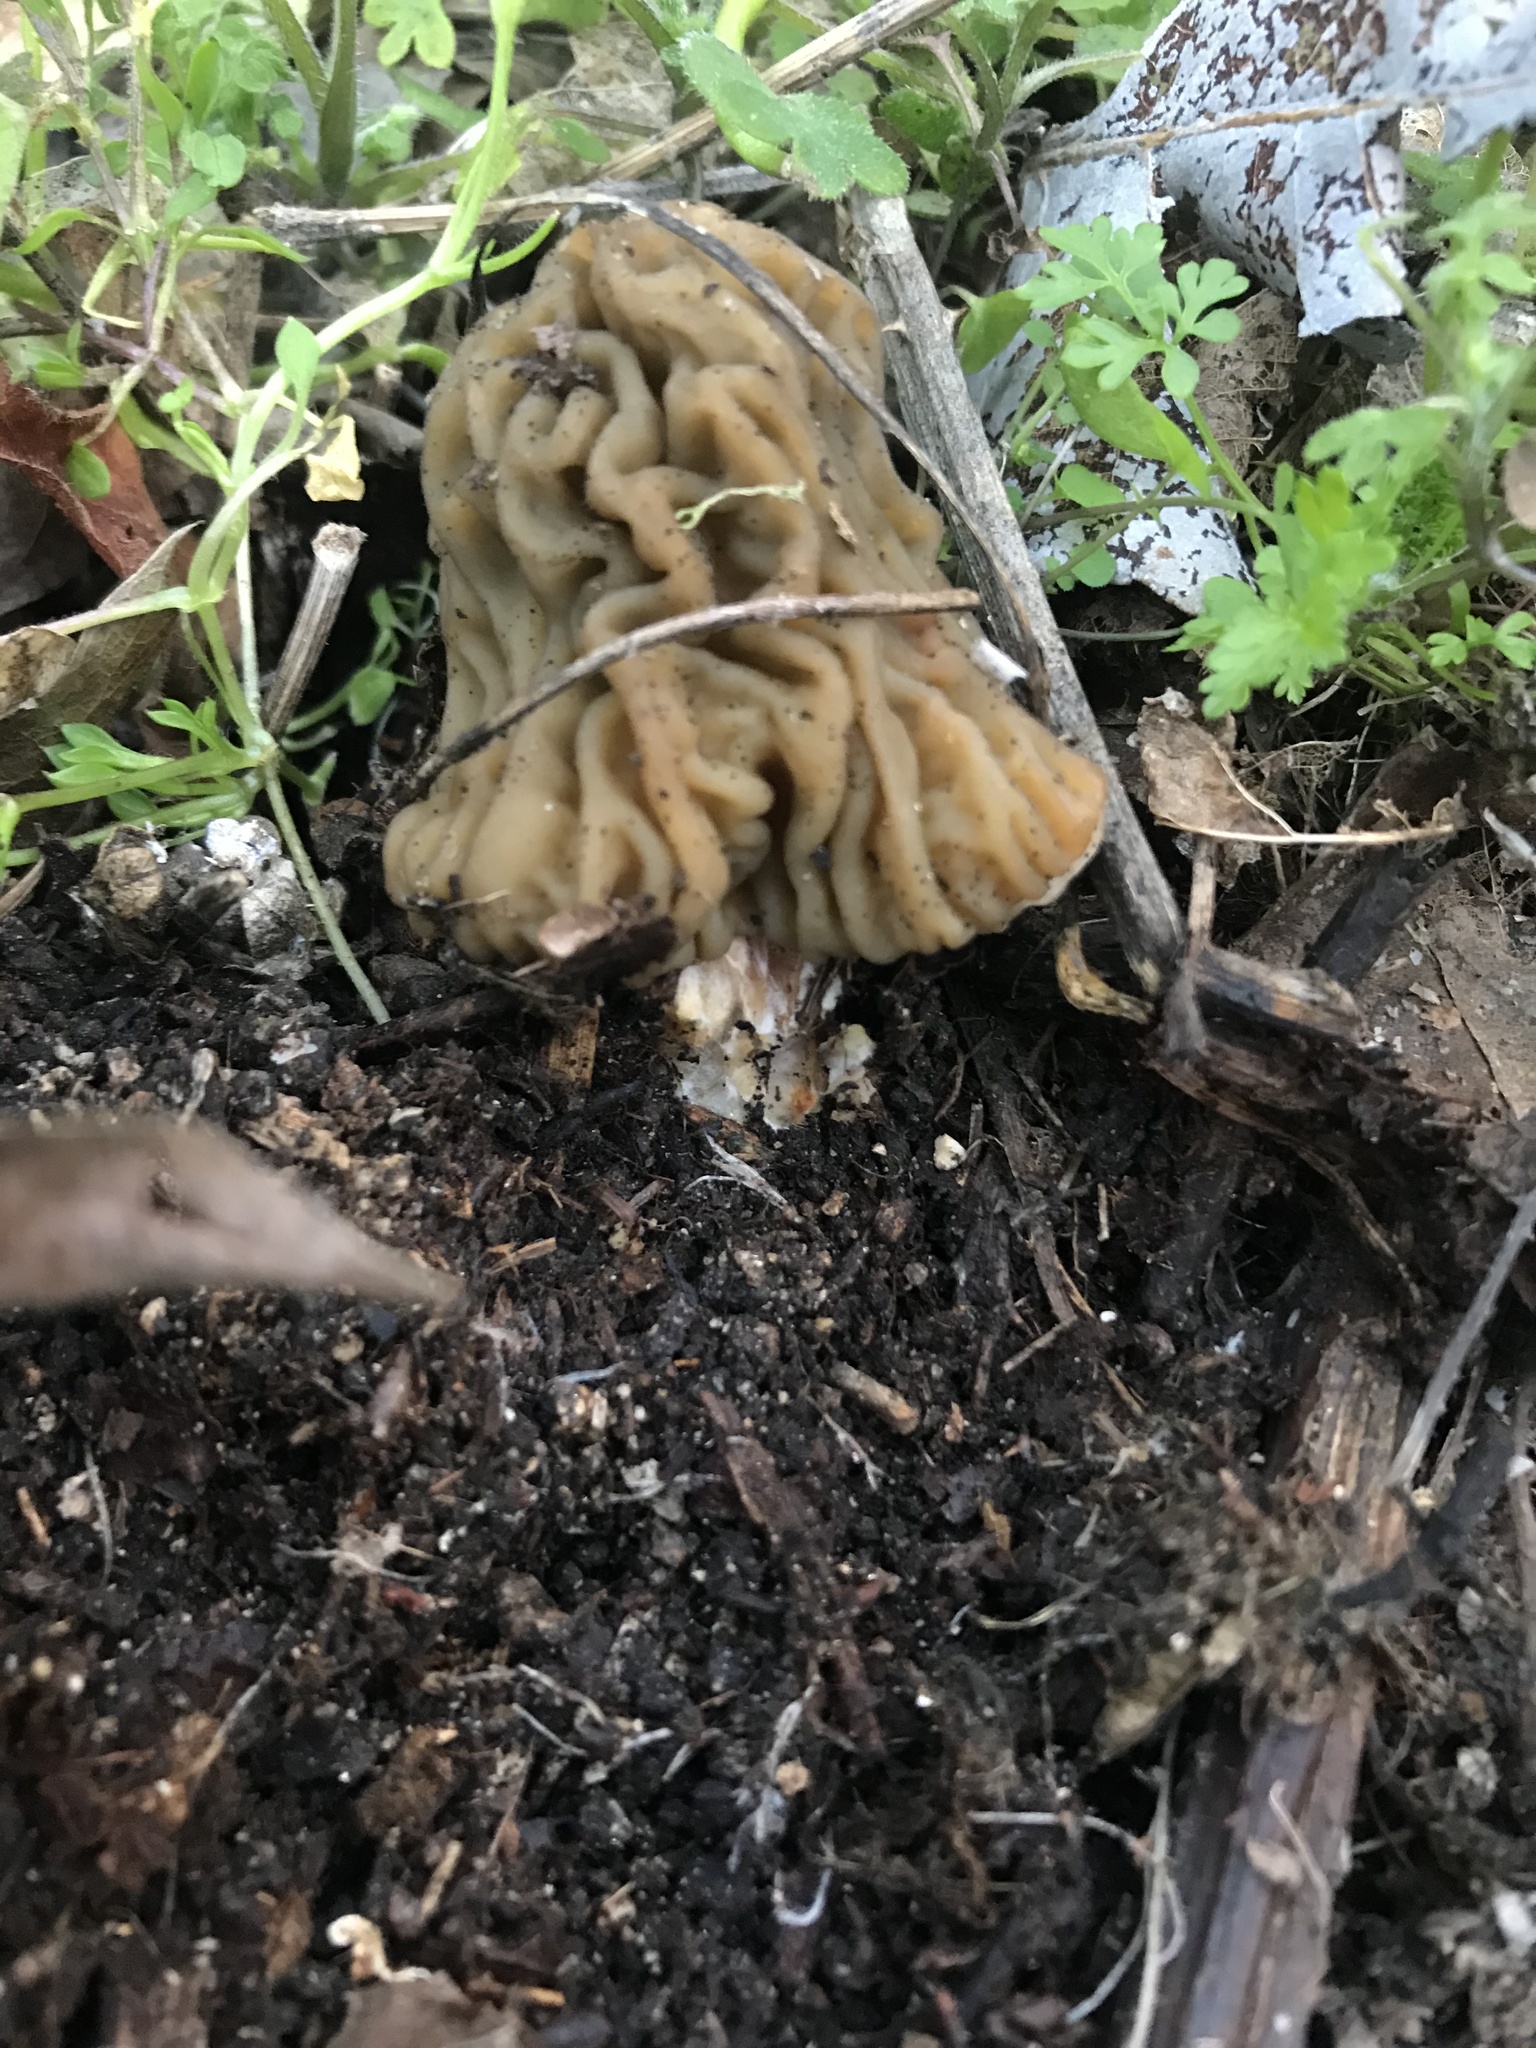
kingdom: Fungi
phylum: Ascomycota
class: Pezizomycetes
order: Pezizales
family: Morchellaceae
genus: Verpa
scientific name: Verpa bohemica
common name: Wrinkled thimble morel
